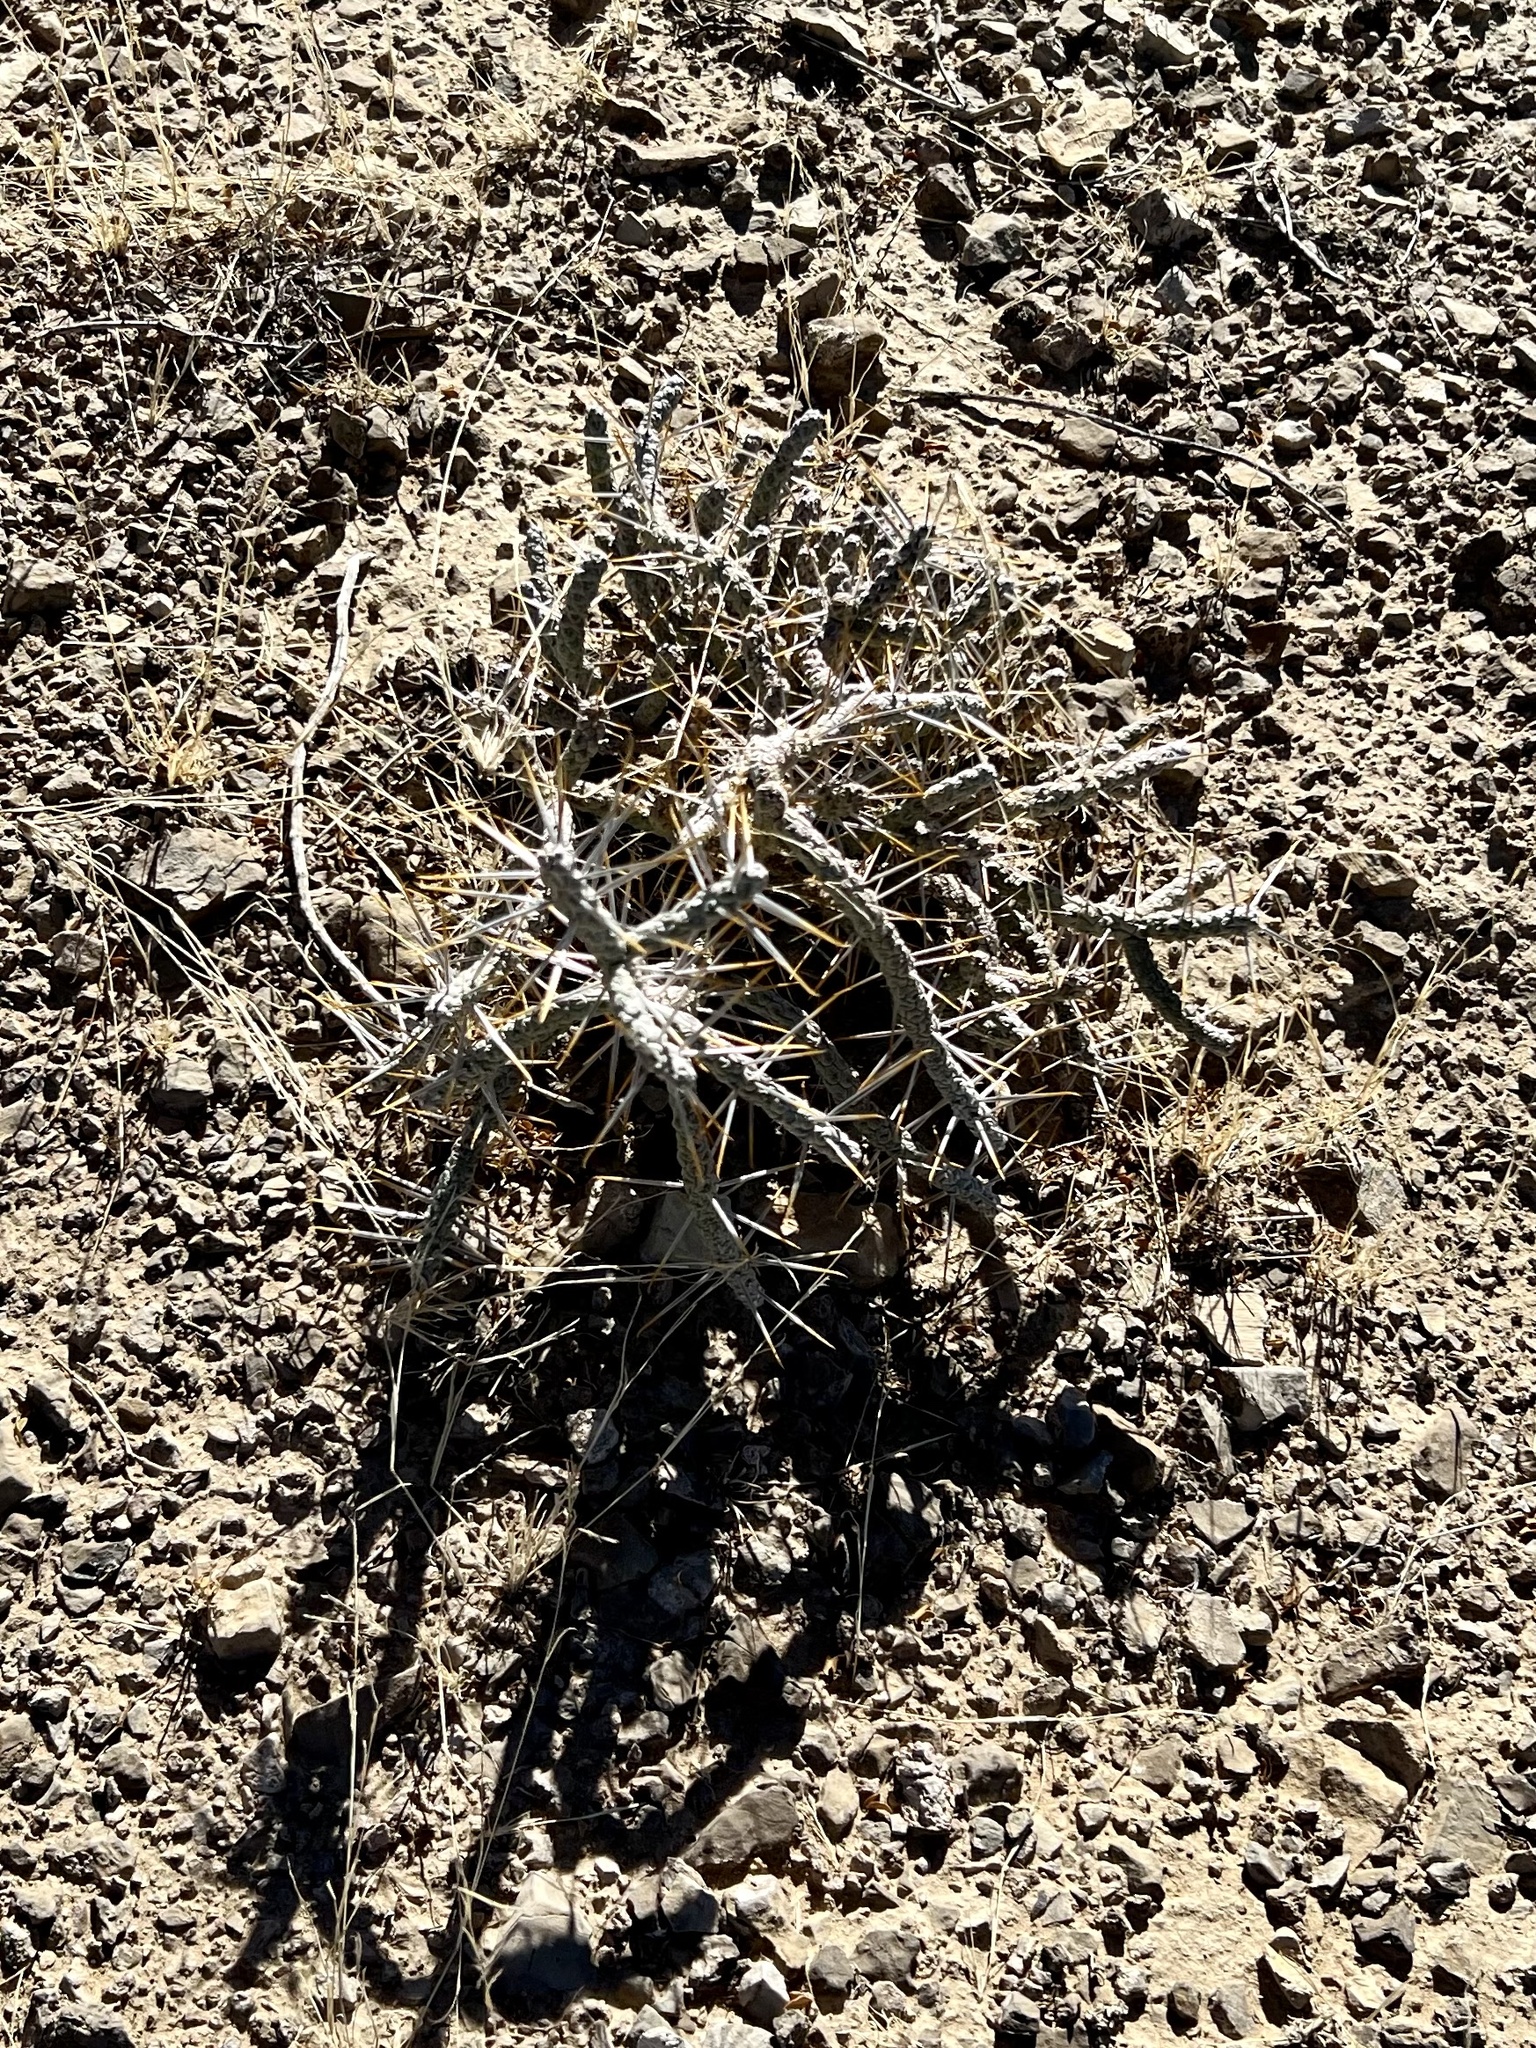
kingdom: Plantae
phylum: Tracheophyta
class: Magnoliopsida
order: Caryophyllales
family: Cactaceae
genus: Cylindropuntia
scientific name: Cylindropuntia ramosissima
